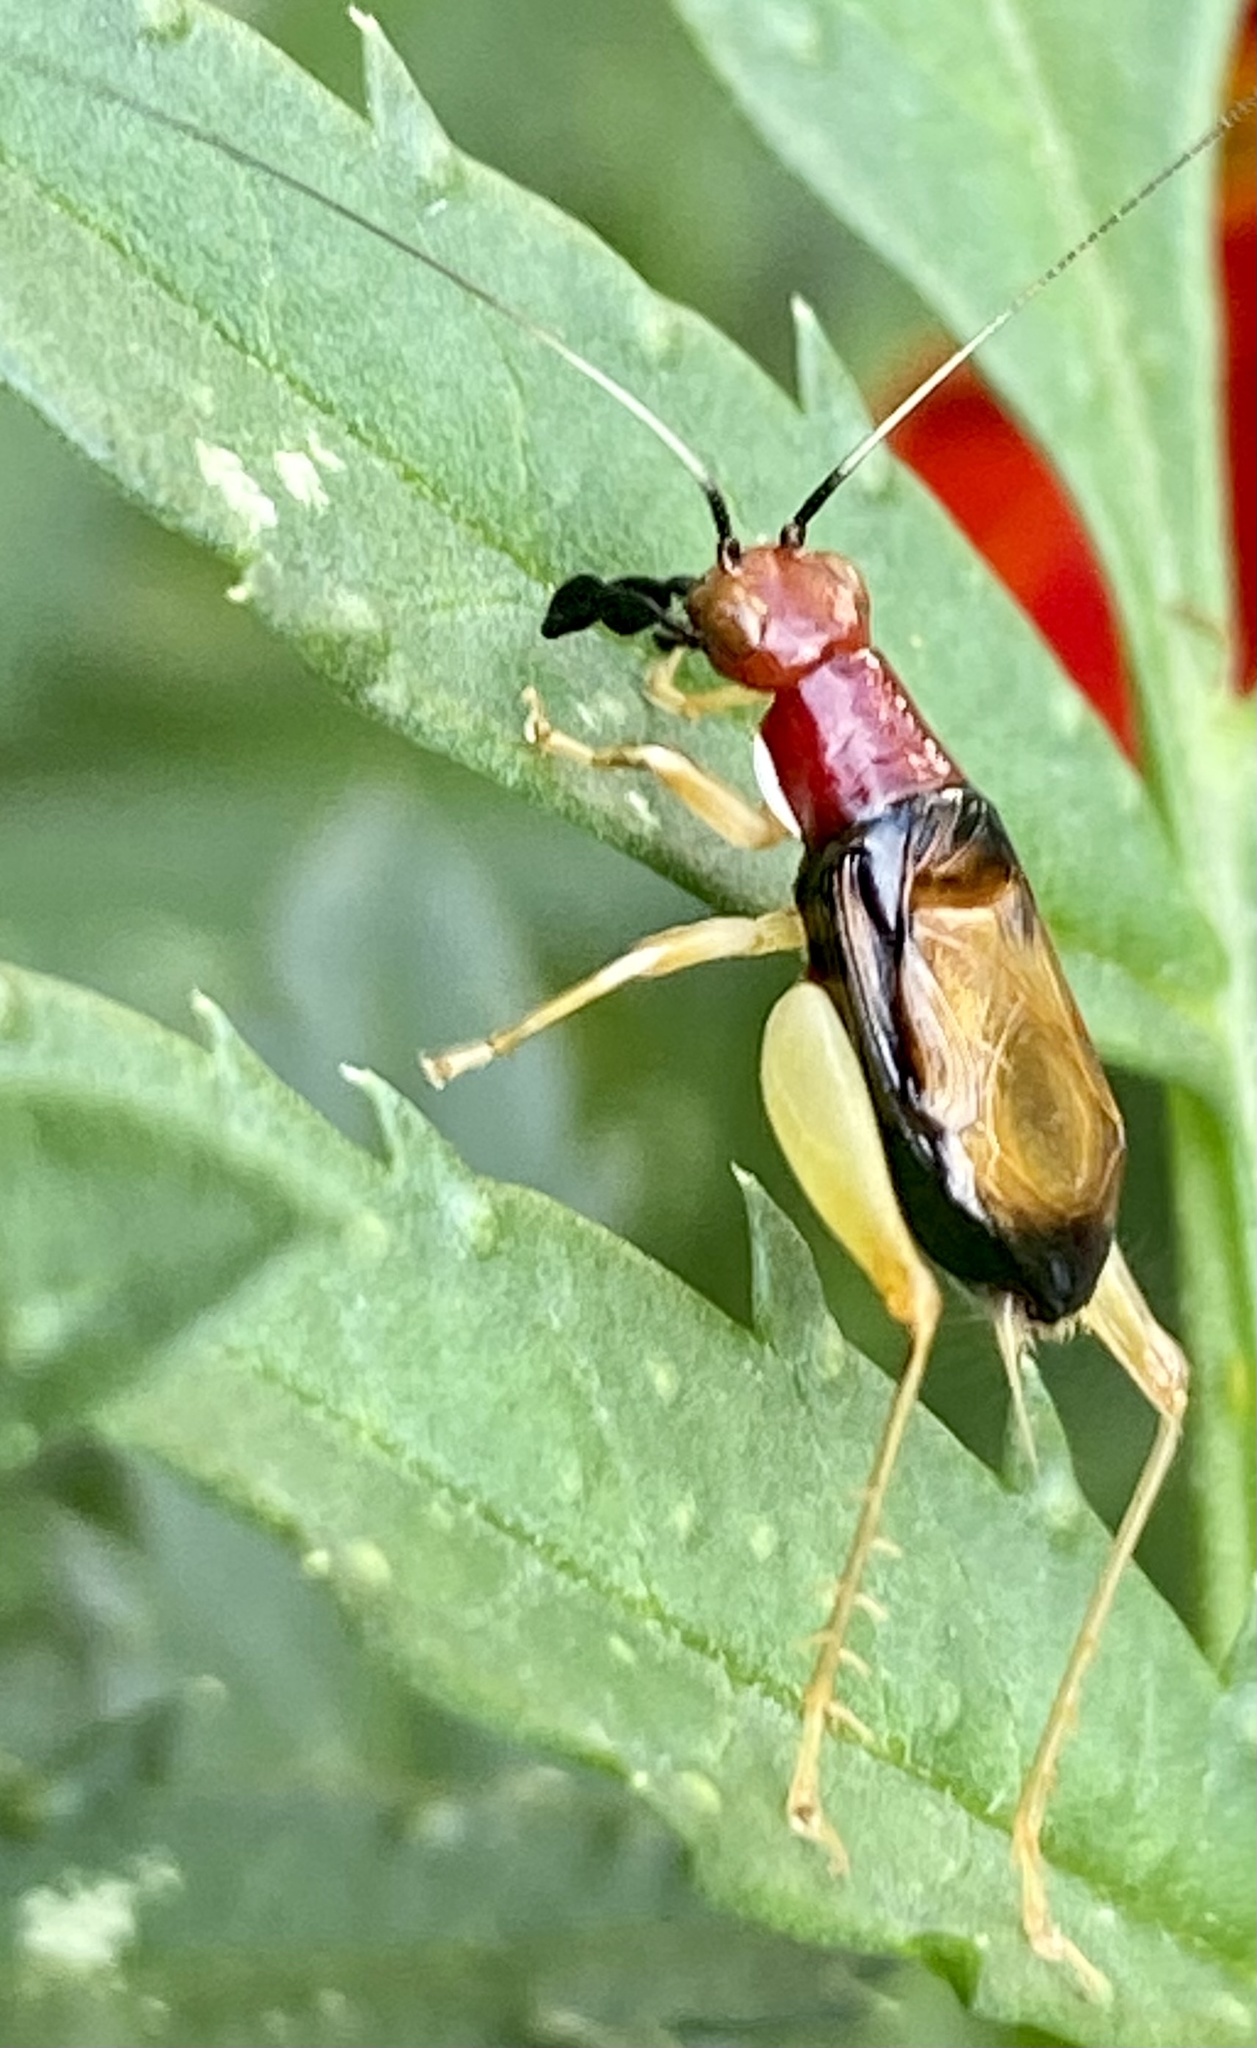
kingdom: Animalia
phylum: Arthropoda
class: Insecta
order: Orthoptera
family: Trigonidiidae
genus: Phyllopalpus
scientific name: Phyllopalpus pulchellus
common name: Handsome trig
